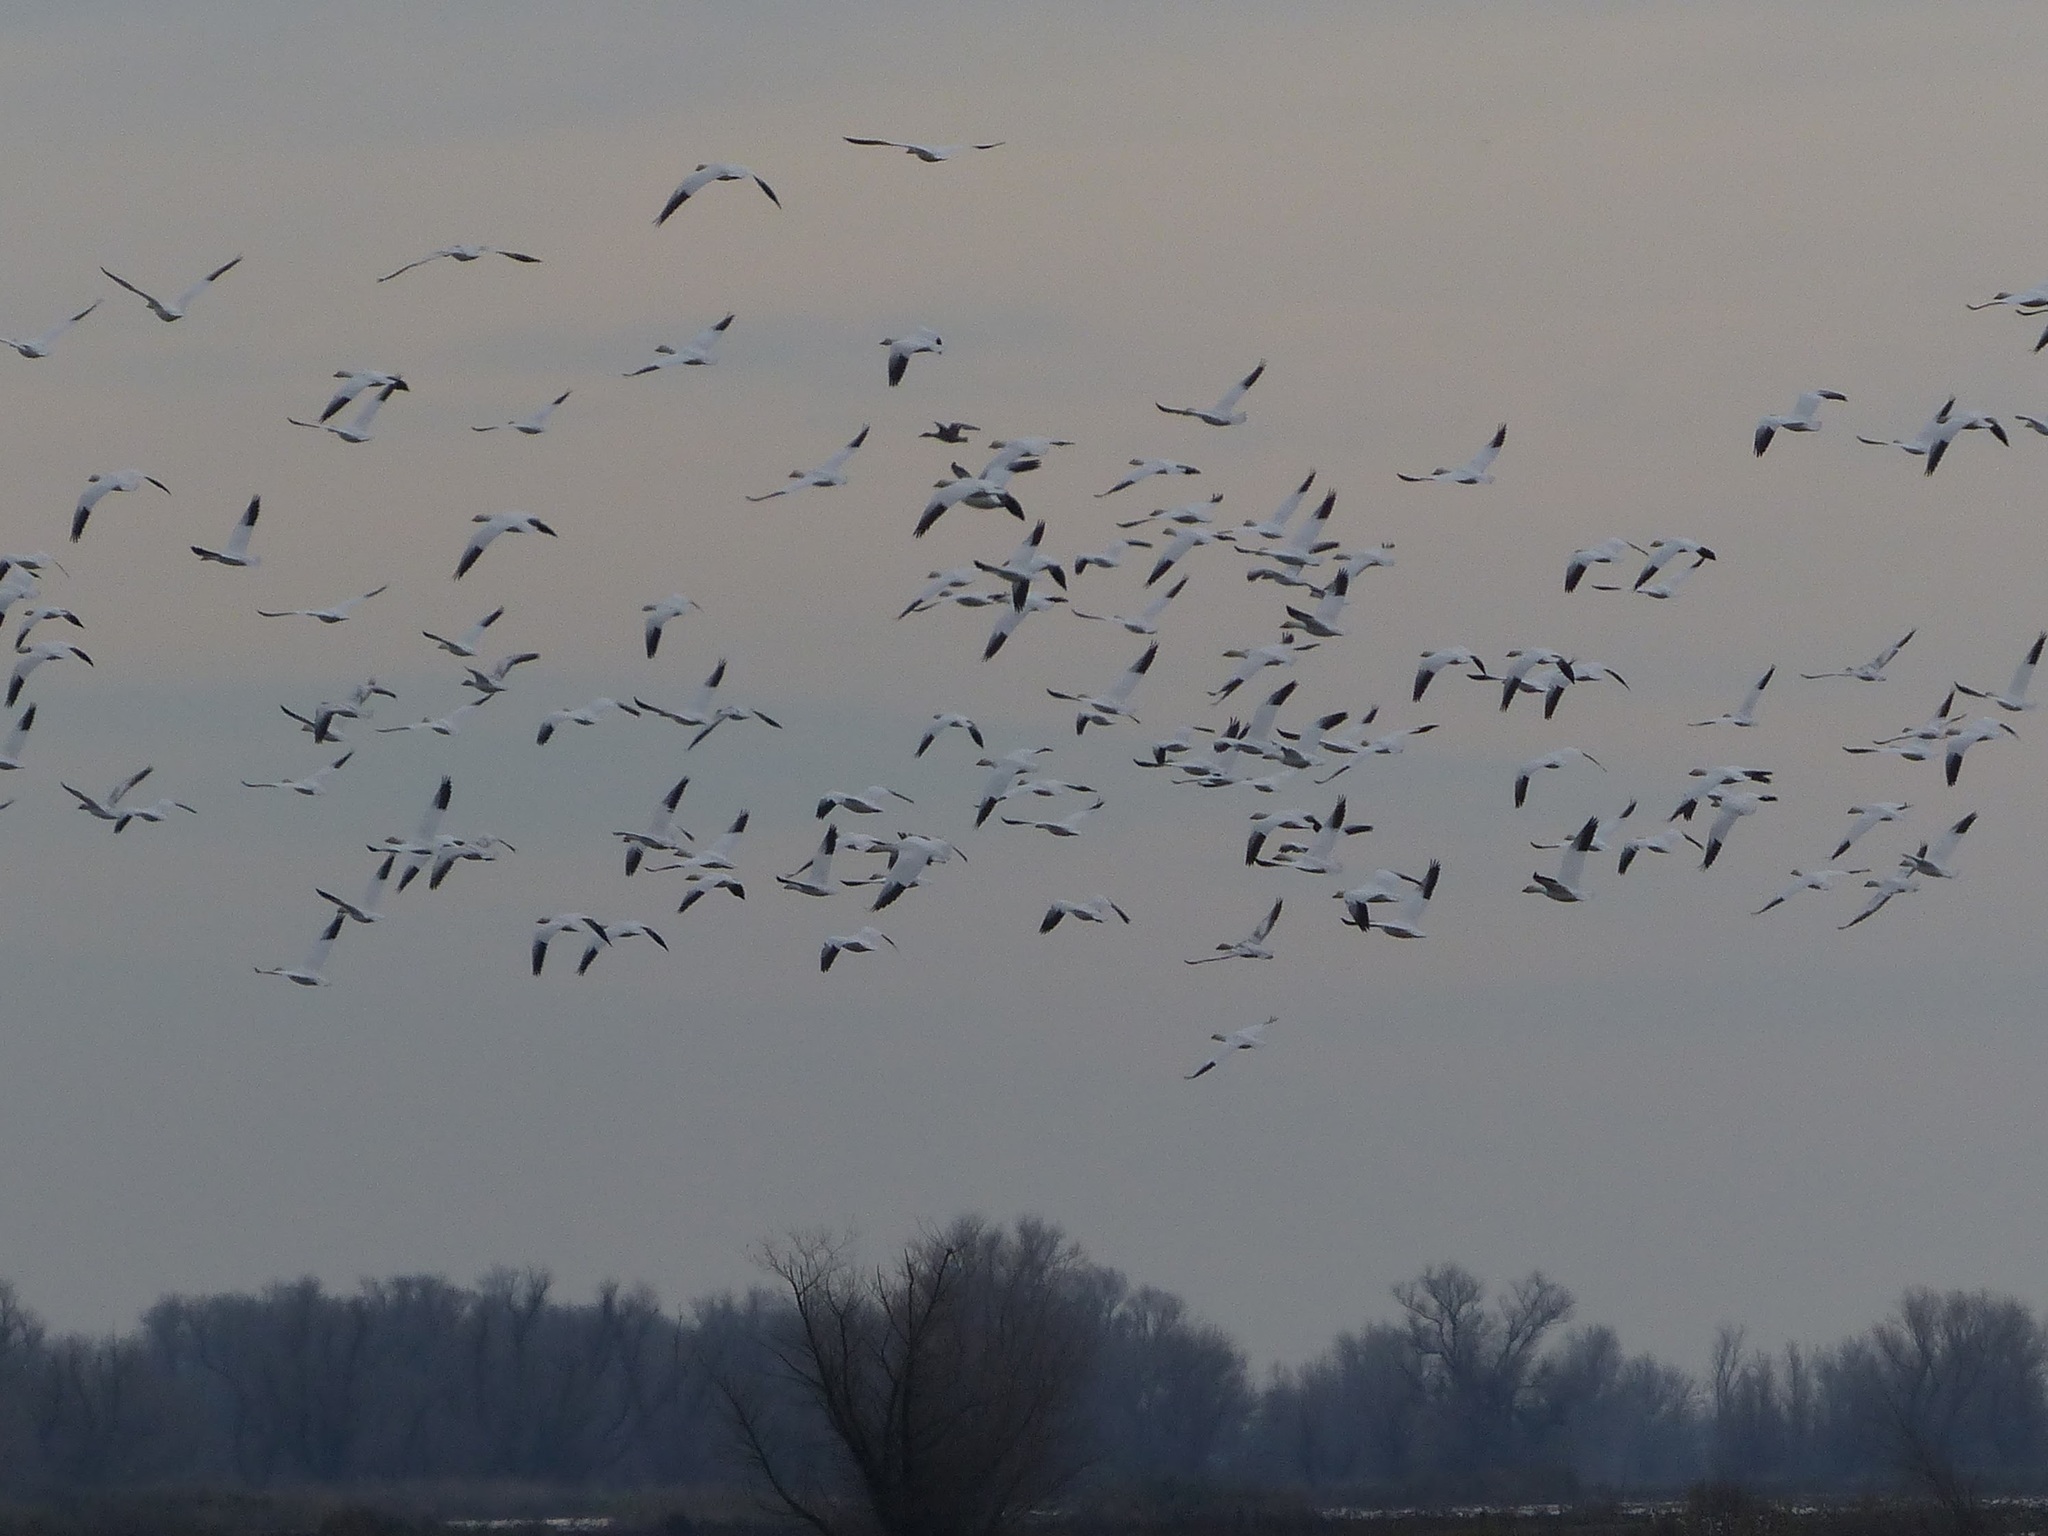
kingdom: Animalia
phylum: Chordata
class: Aves
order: Anseriformes
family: Anatidae
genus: Anser
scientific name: Anser caerulescens
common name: Snow goose
